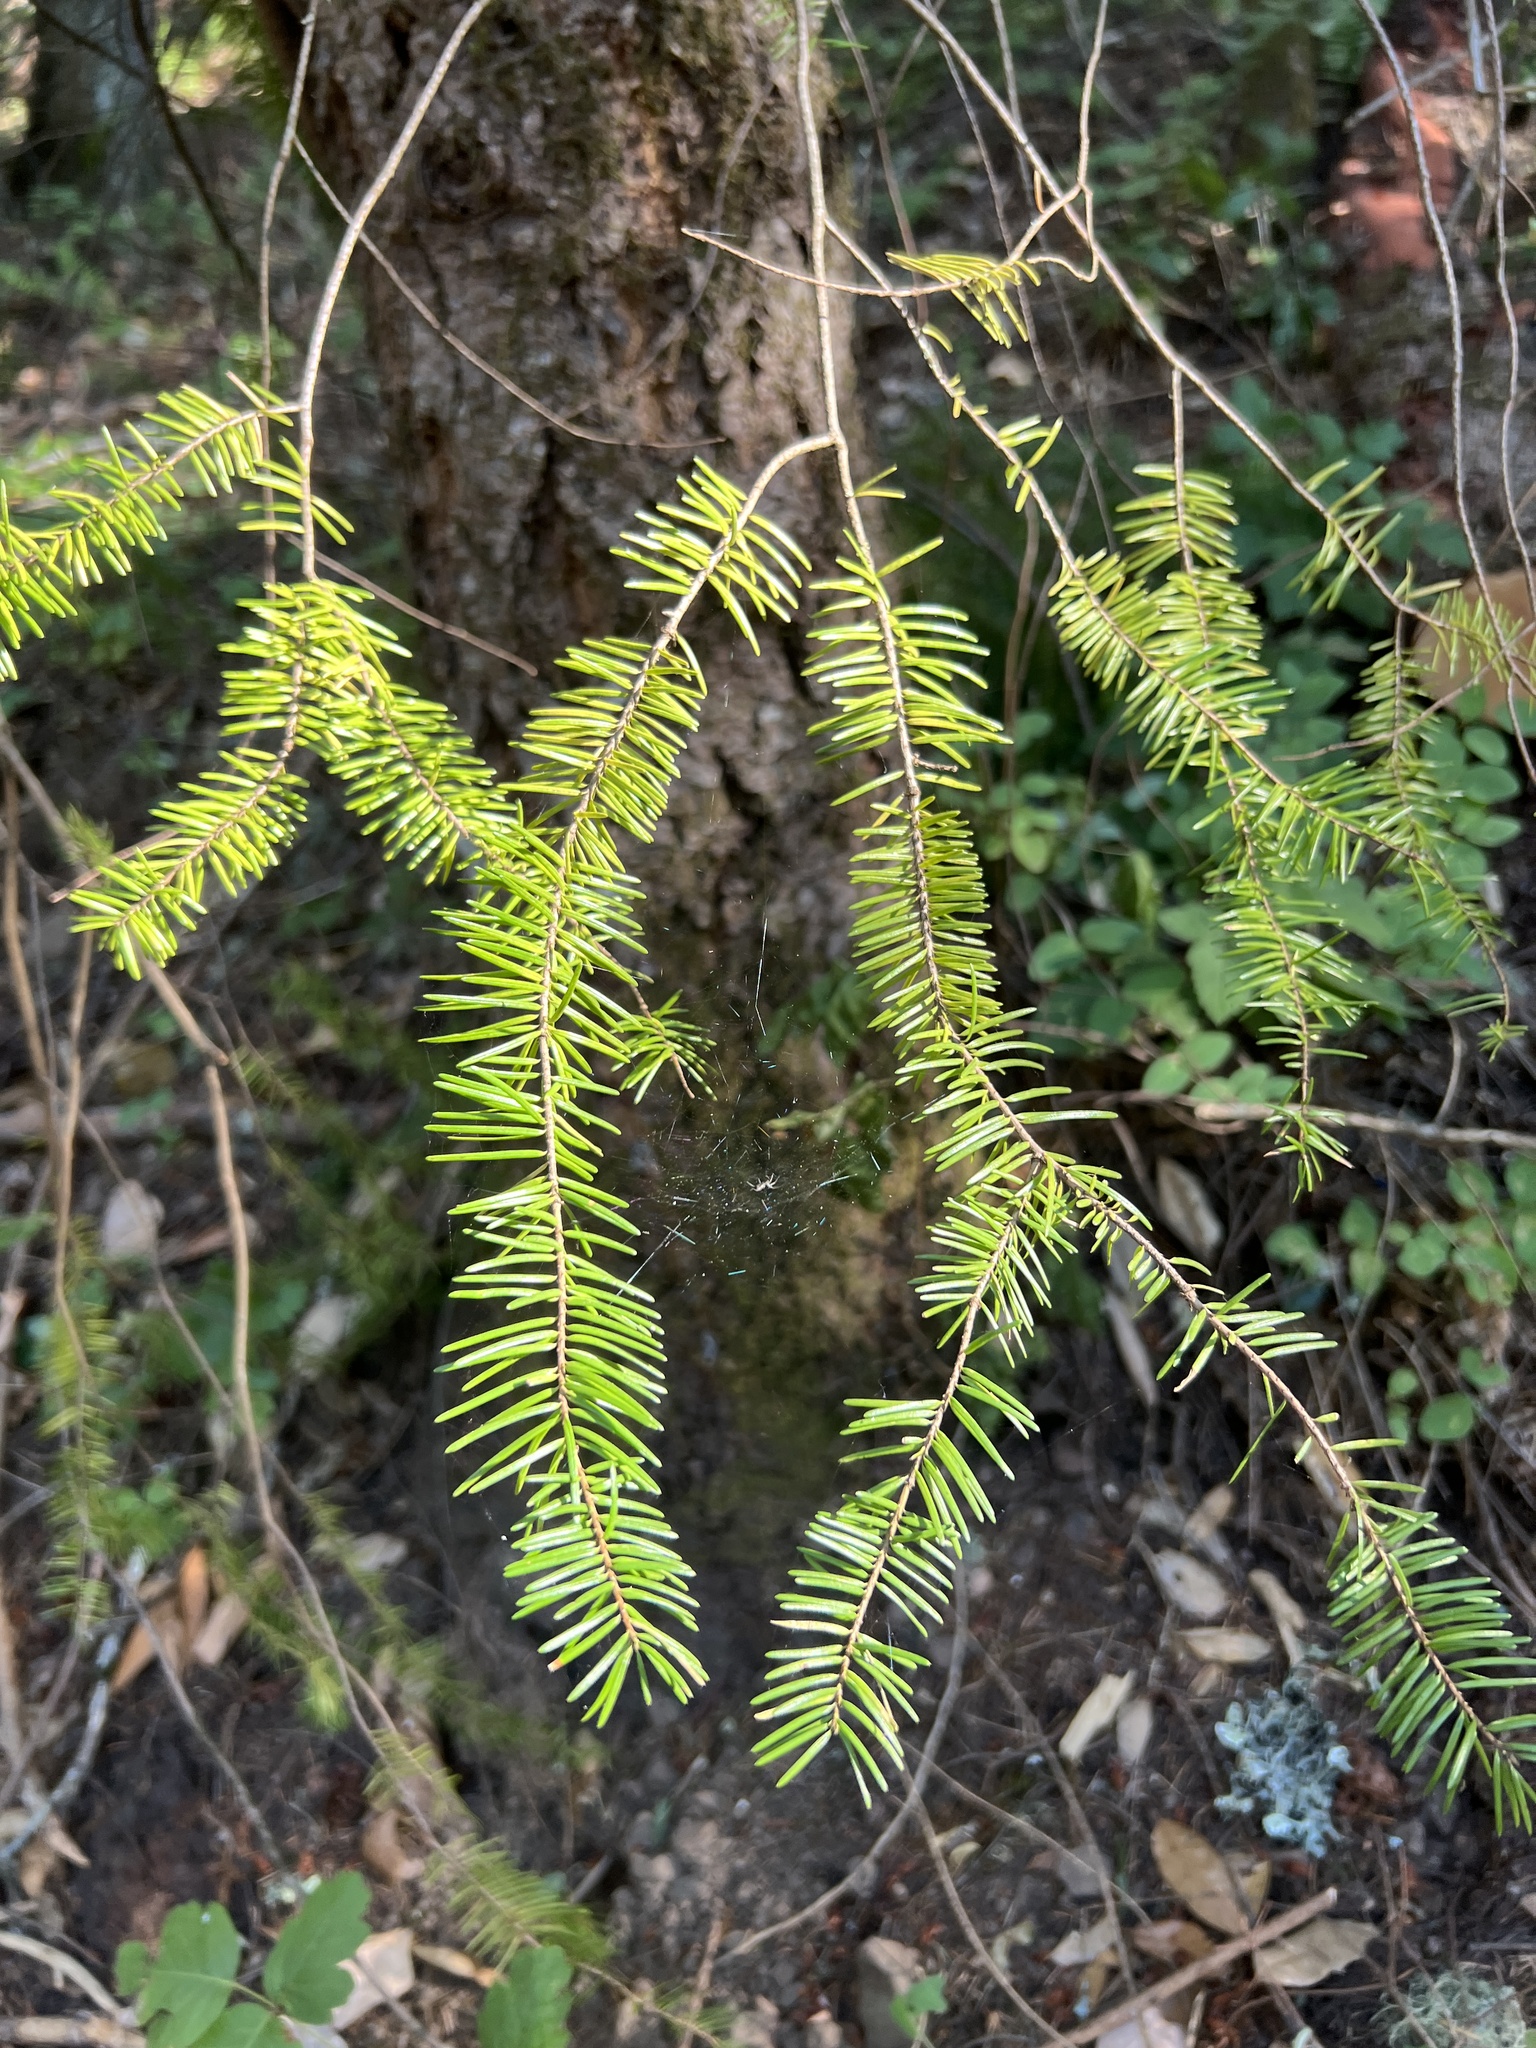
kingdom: Plantae
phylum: Tracheophyta
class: Pinopsida
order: Pinales
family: Pinaceae
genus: Pseudotsuga
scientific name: Pseudotsuga menziesii
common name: Douglas fir
